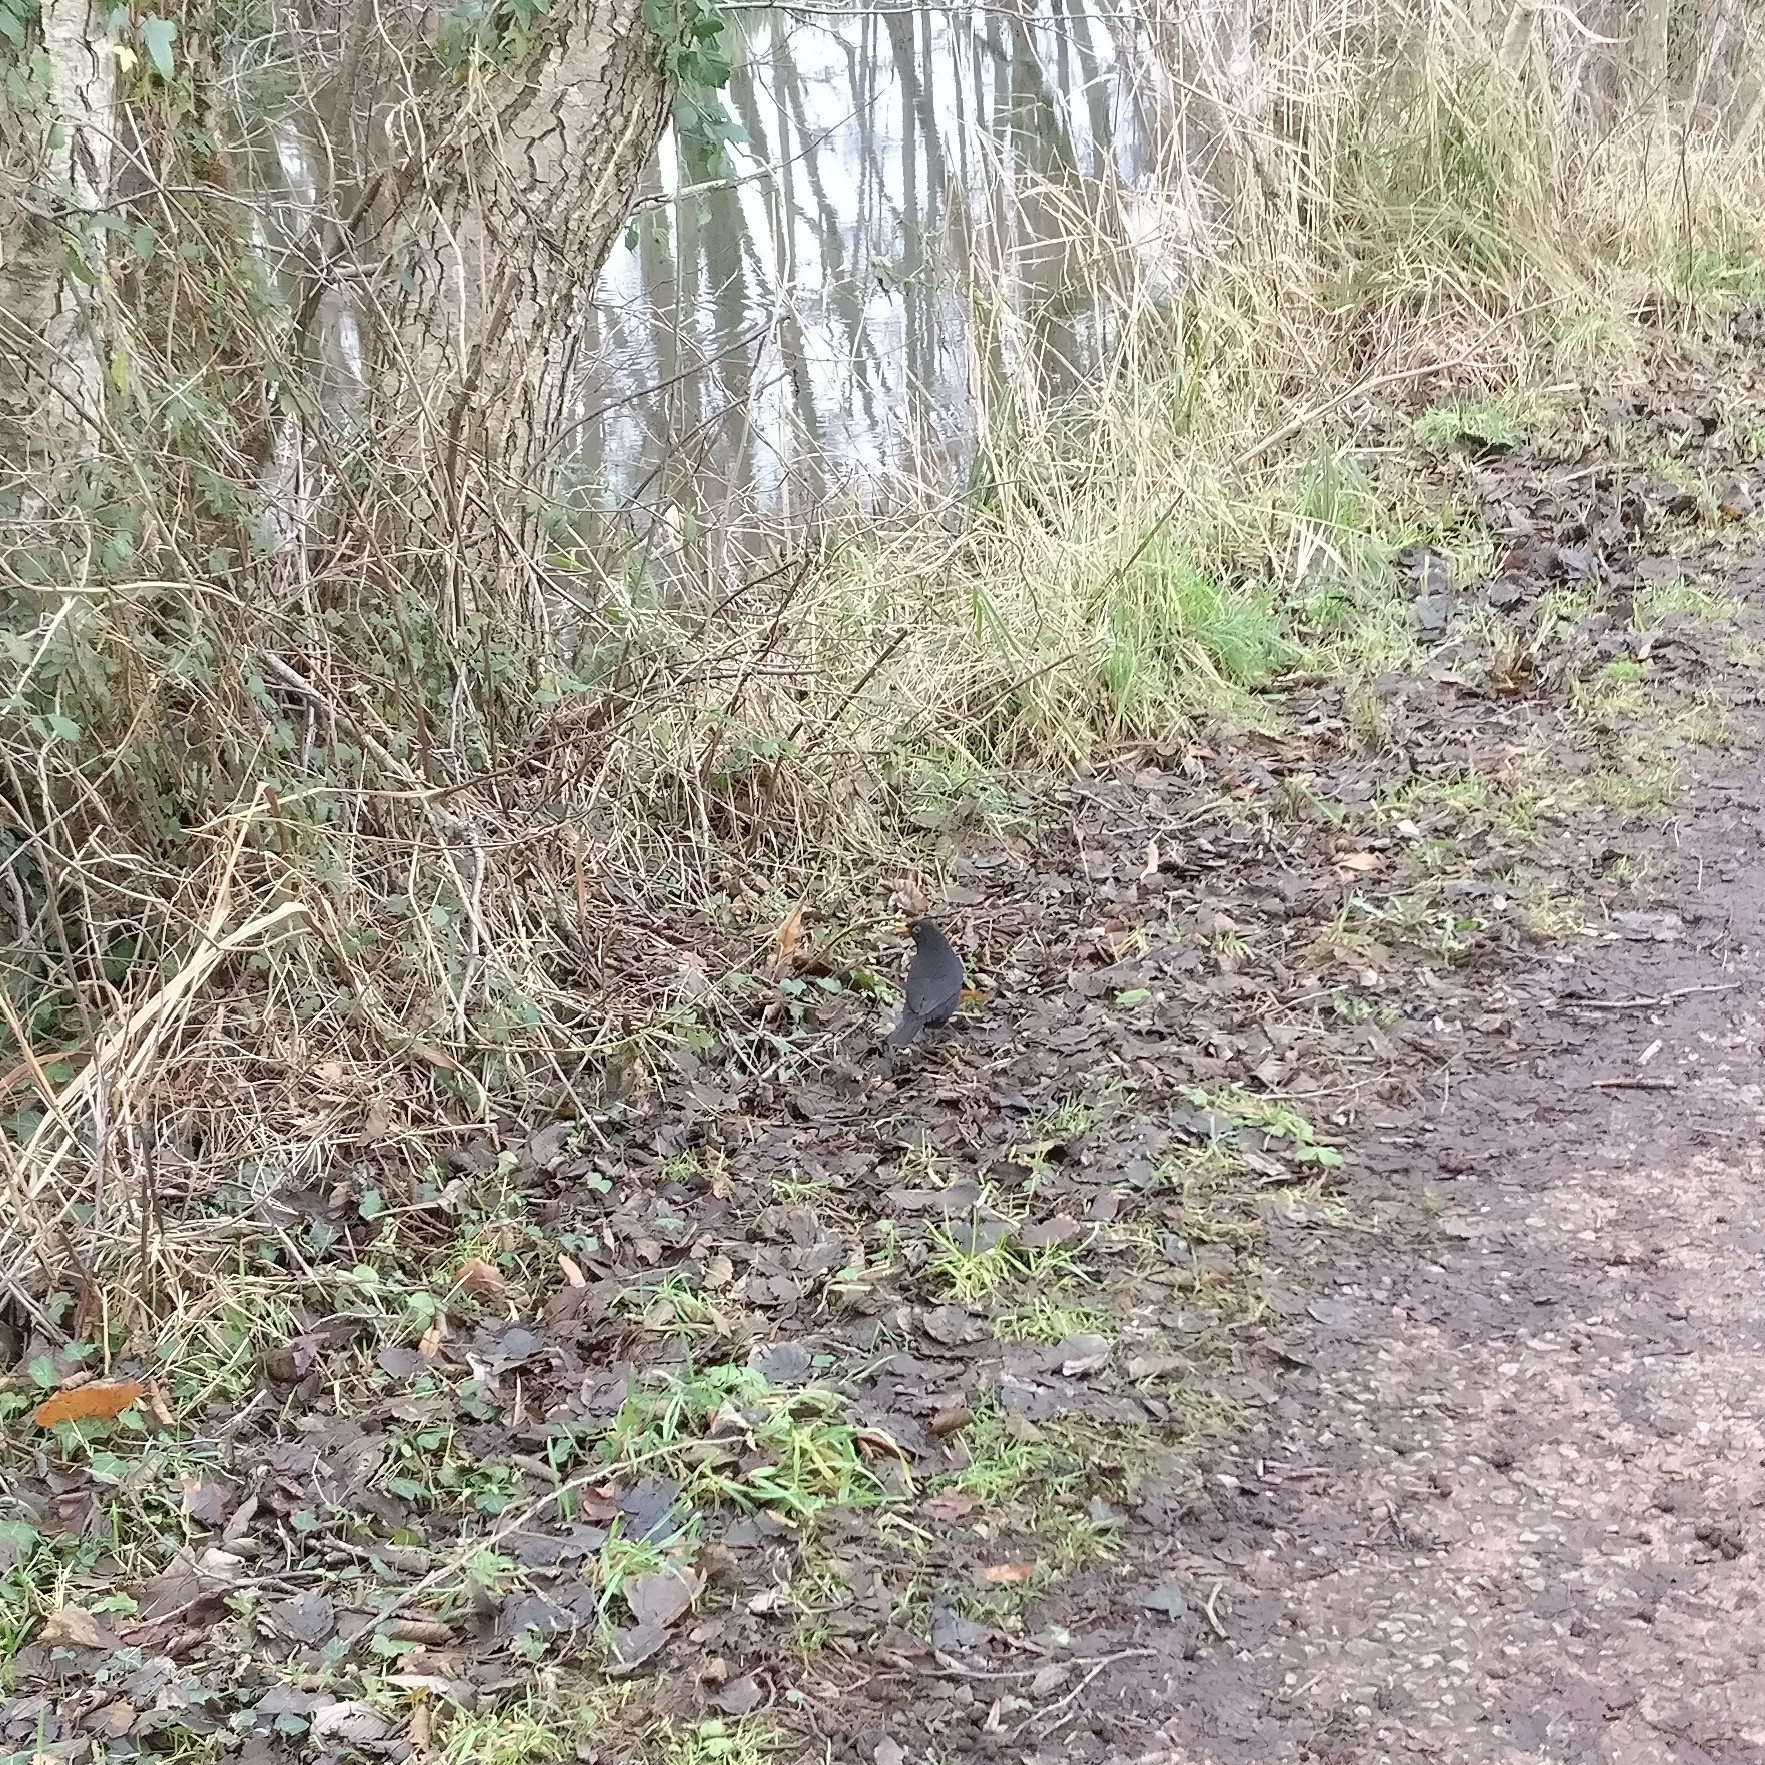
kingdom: Animalia
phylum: Chordata
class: Aves
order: Passeriformes
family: Turdidae
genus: Turdus
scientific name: Turdus merula
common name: Common blackbird
